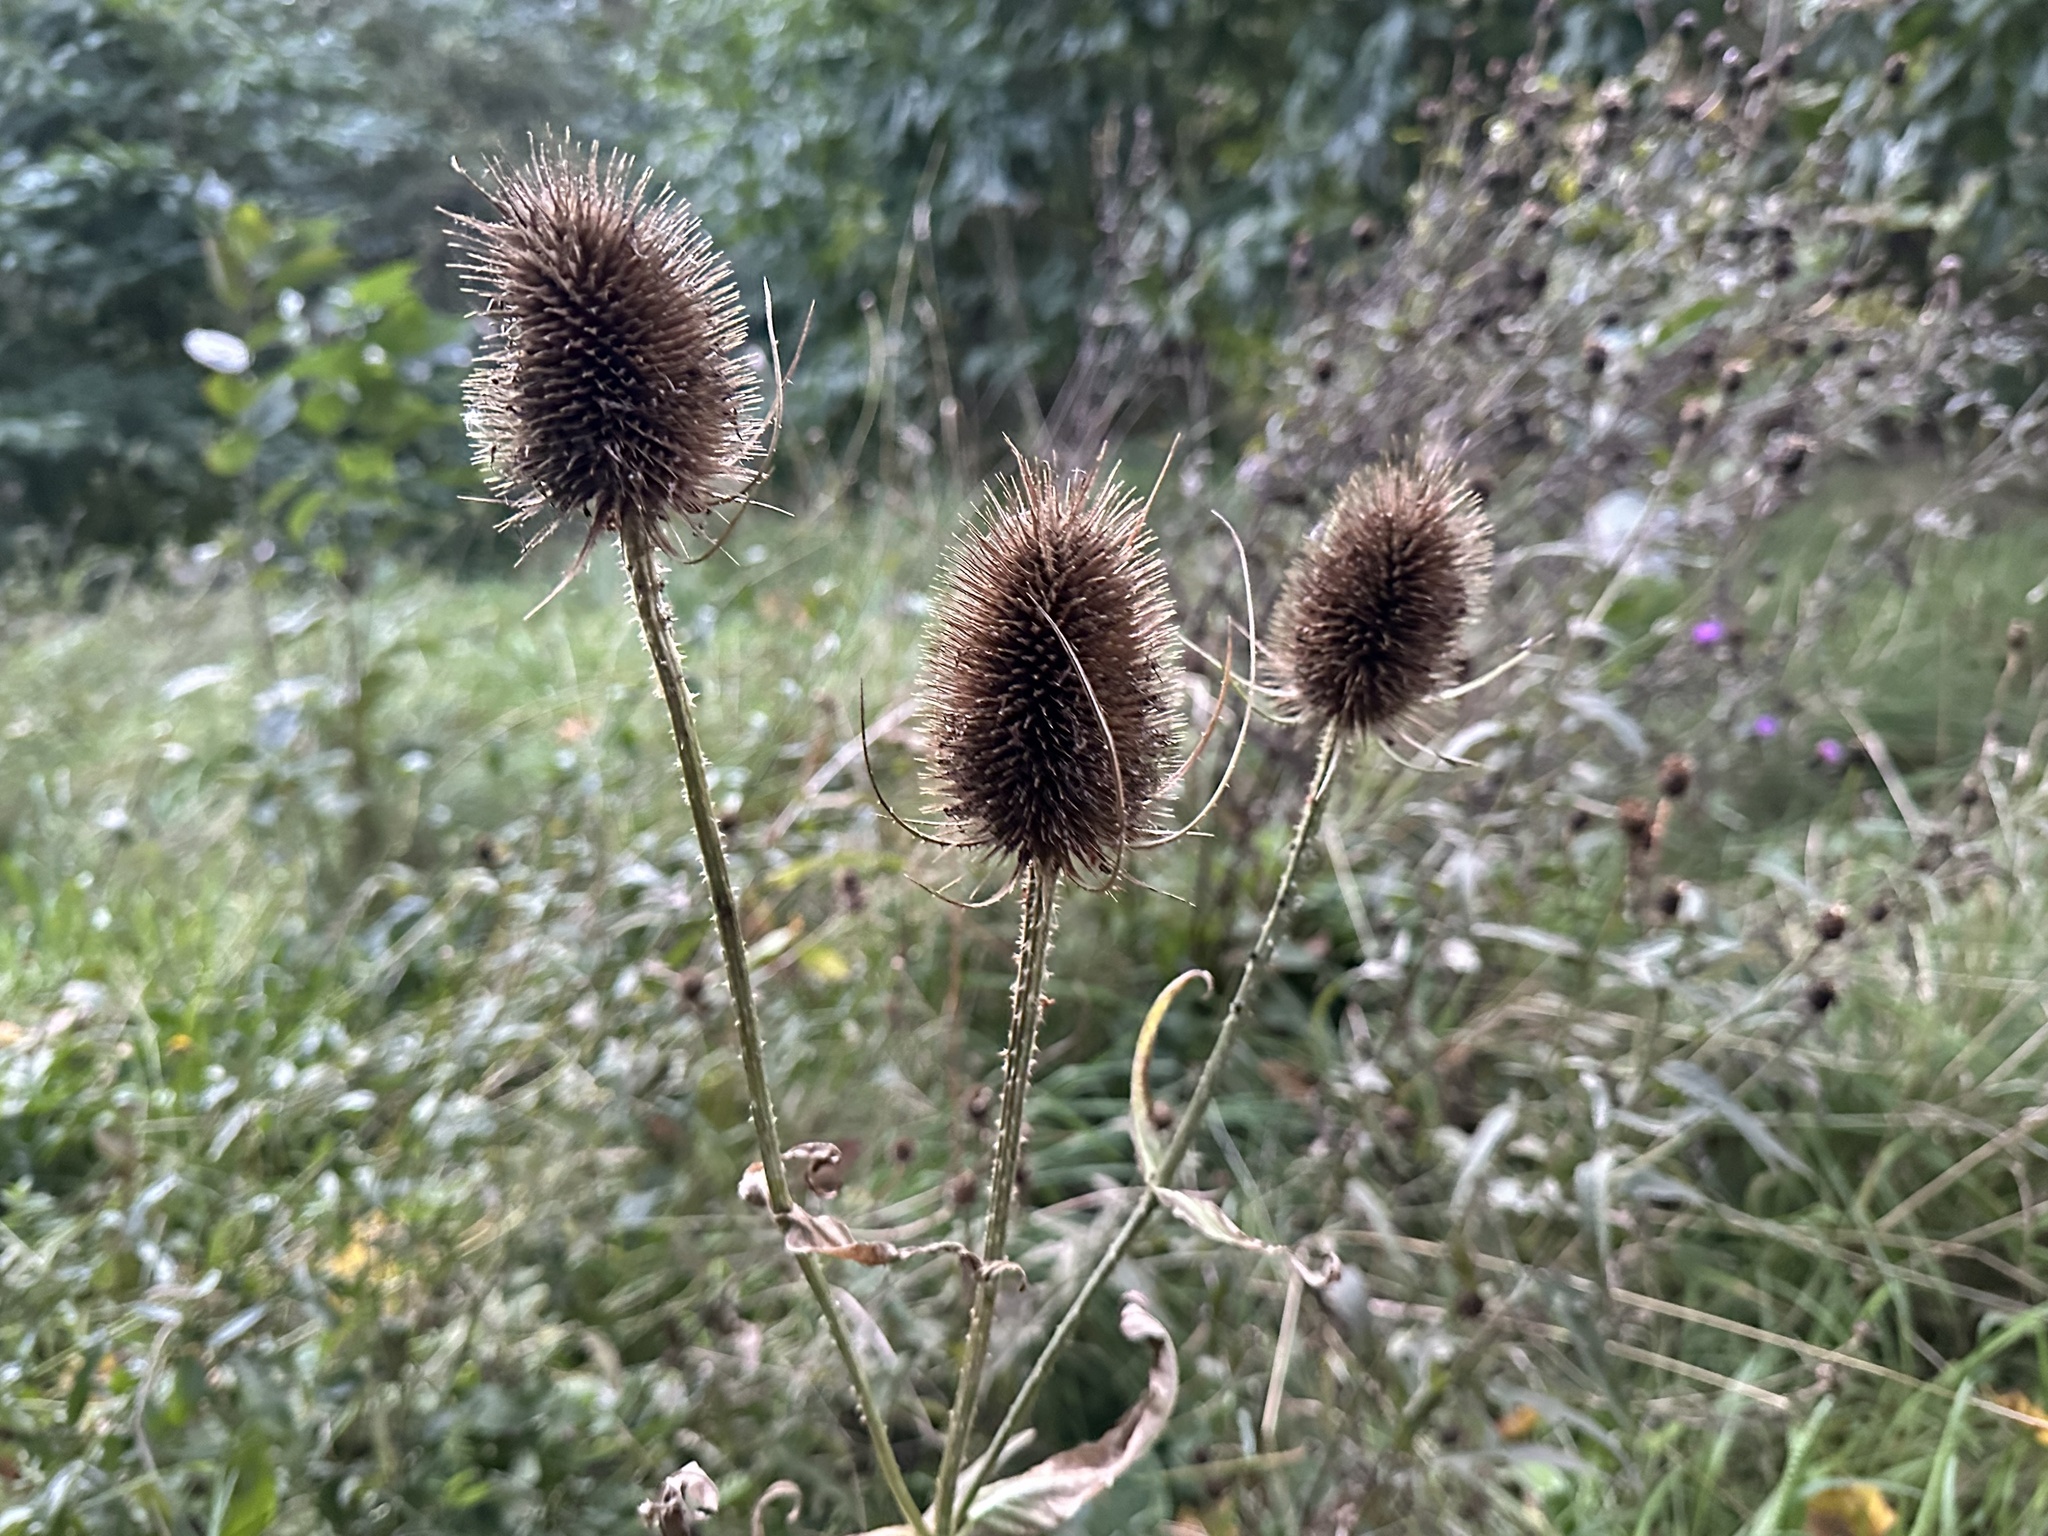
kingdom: Plantae
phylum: Tracheophyta
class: Magnoliopsida
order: Dipsacales
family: Caprifoliaceae
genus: Dipsacus
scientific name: Dipsacus fullonum
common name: Teasel
